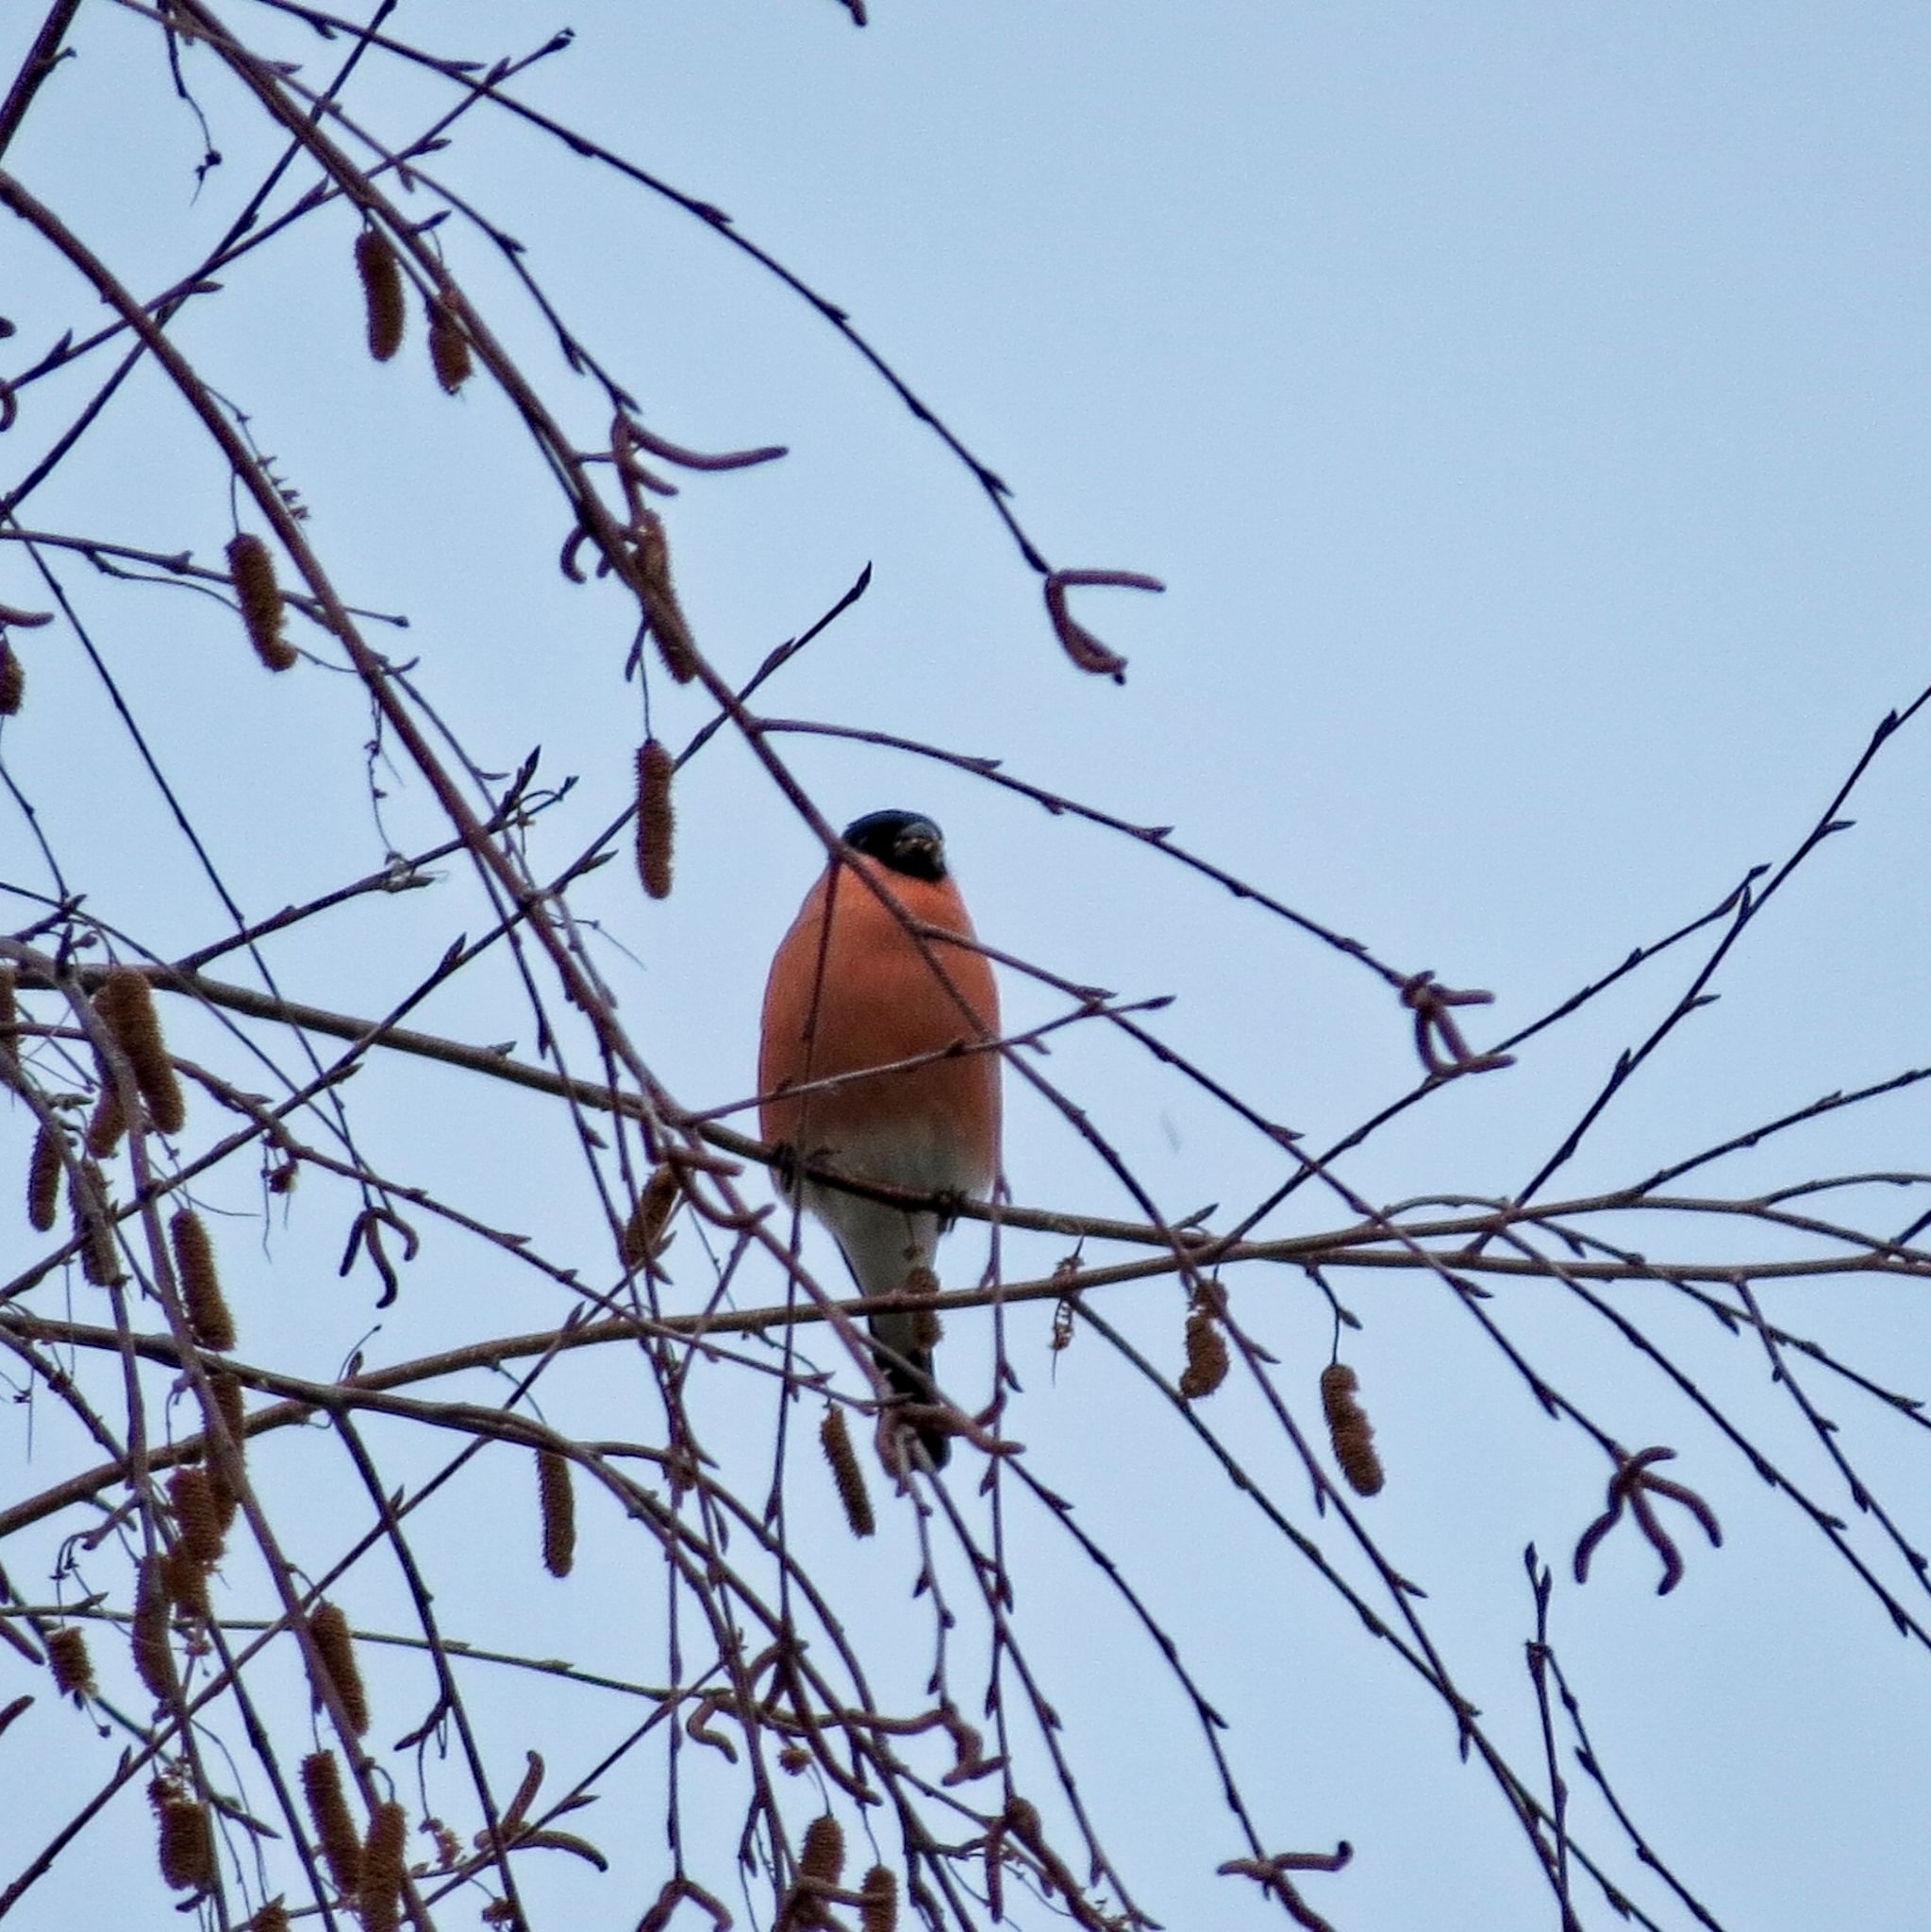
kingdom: Animalia
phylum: Chordata
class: Aves
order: Passeriformes
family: Fringillidae
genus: Pyrrhula
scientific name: Pyrrhula pyrrhula
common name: Eurasian bullfinch
